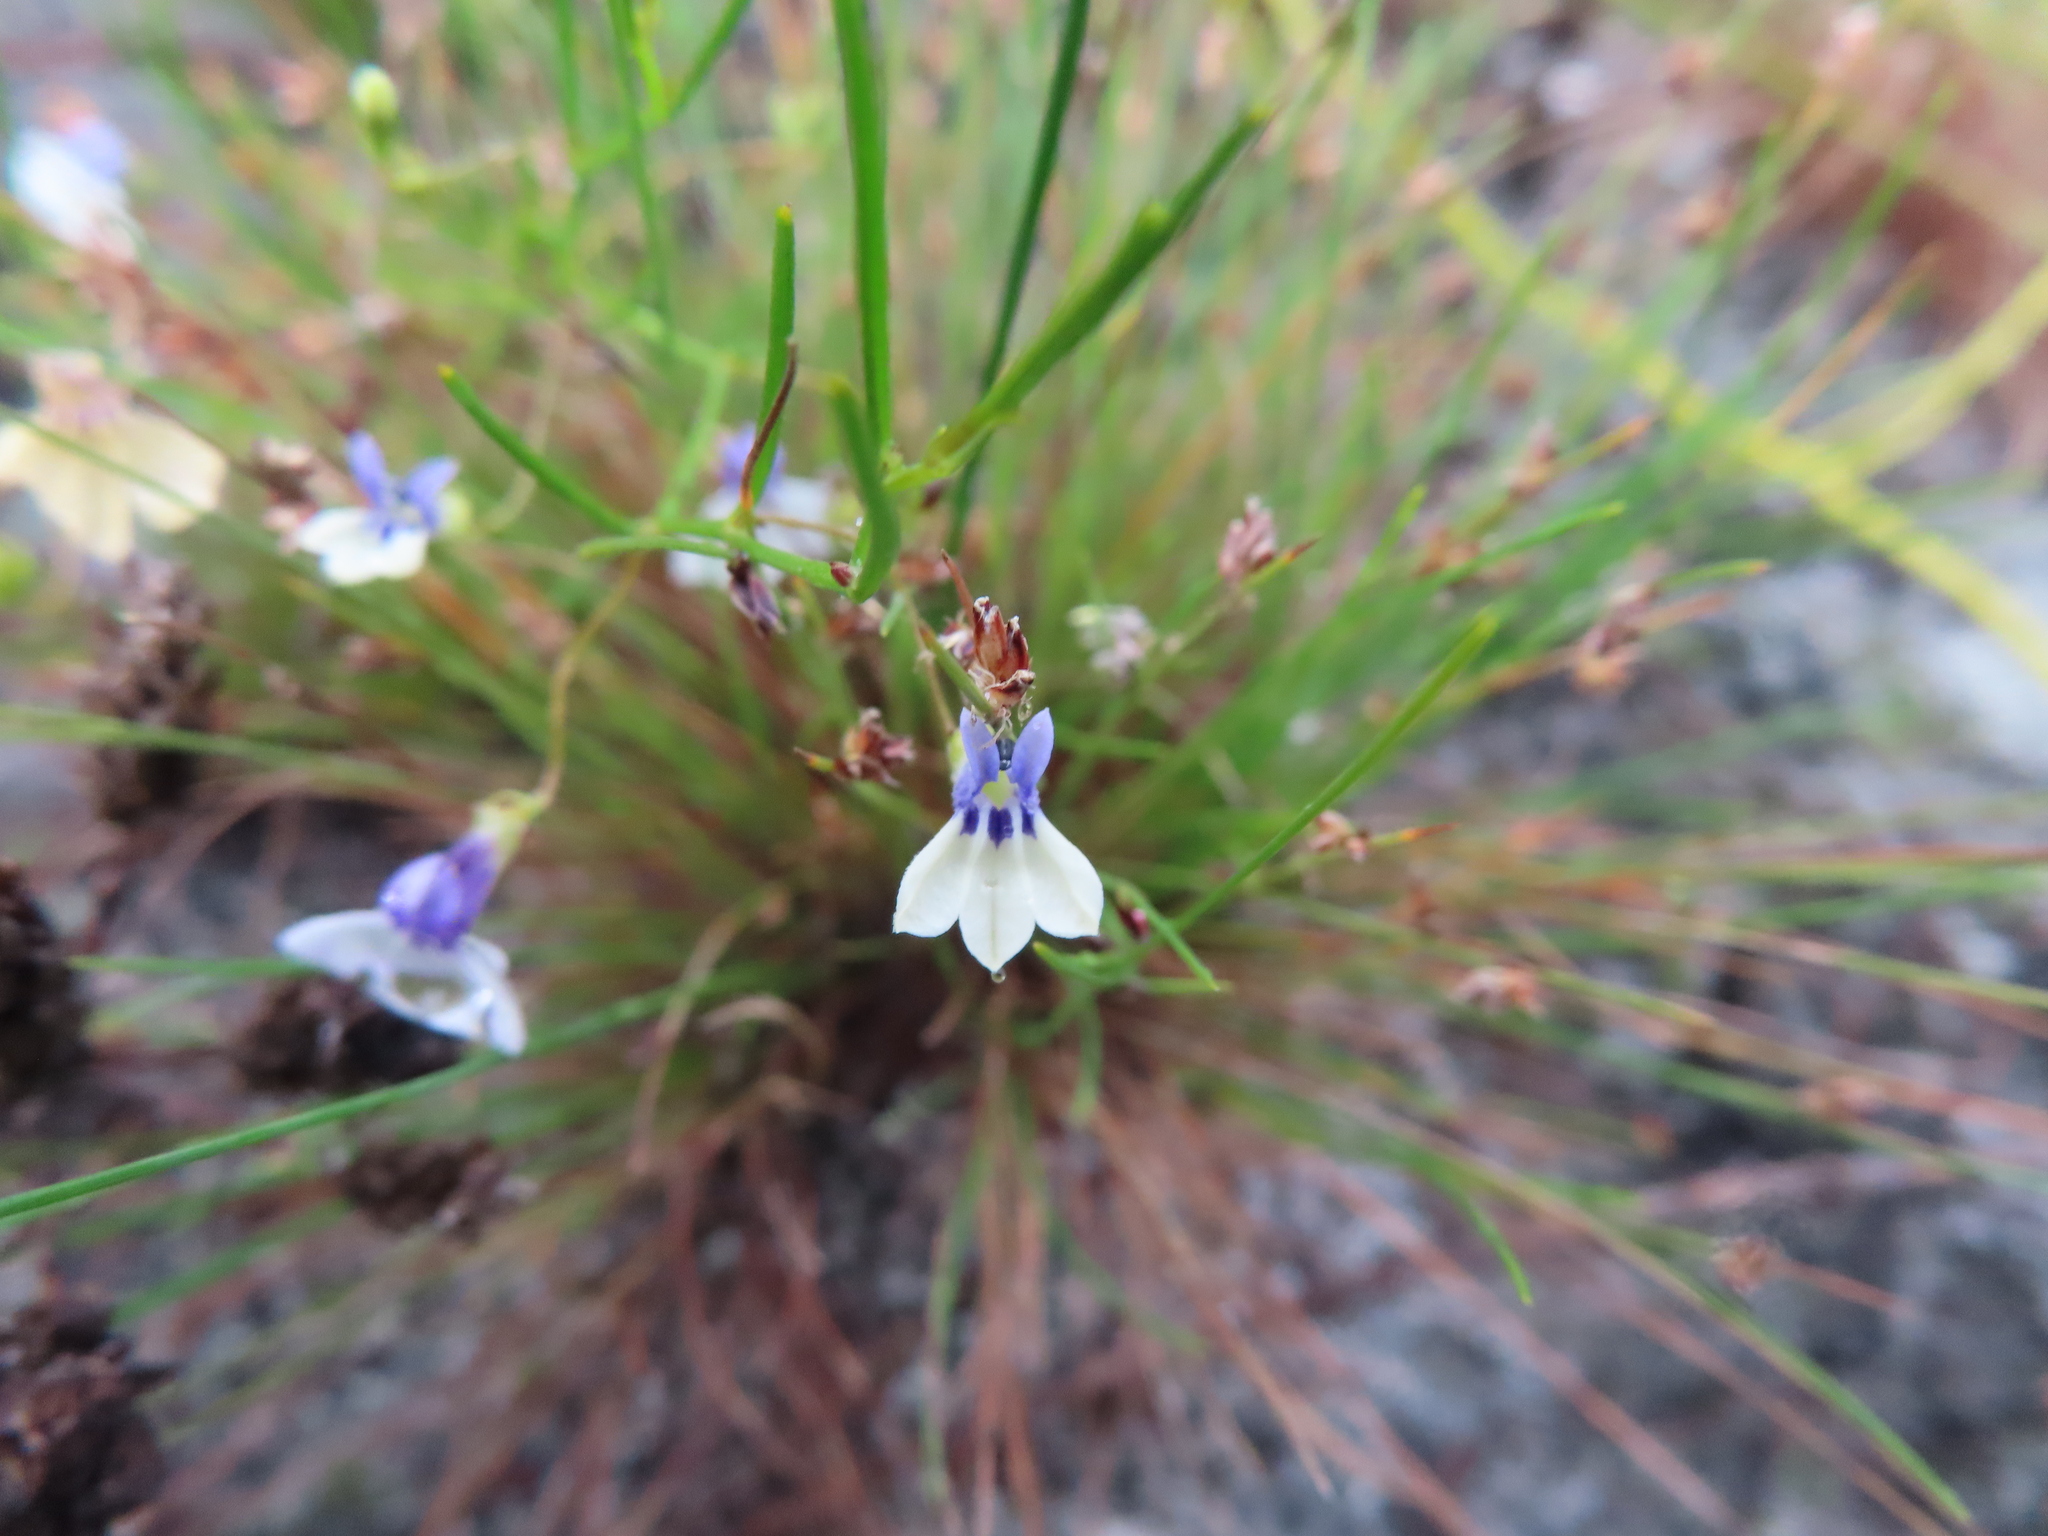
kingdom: Plantae
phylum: Tracheophyta
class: Magnoliopsida
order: Asterales
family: Campanulaceae
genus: Lobelia
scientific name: Lobelia setacea
